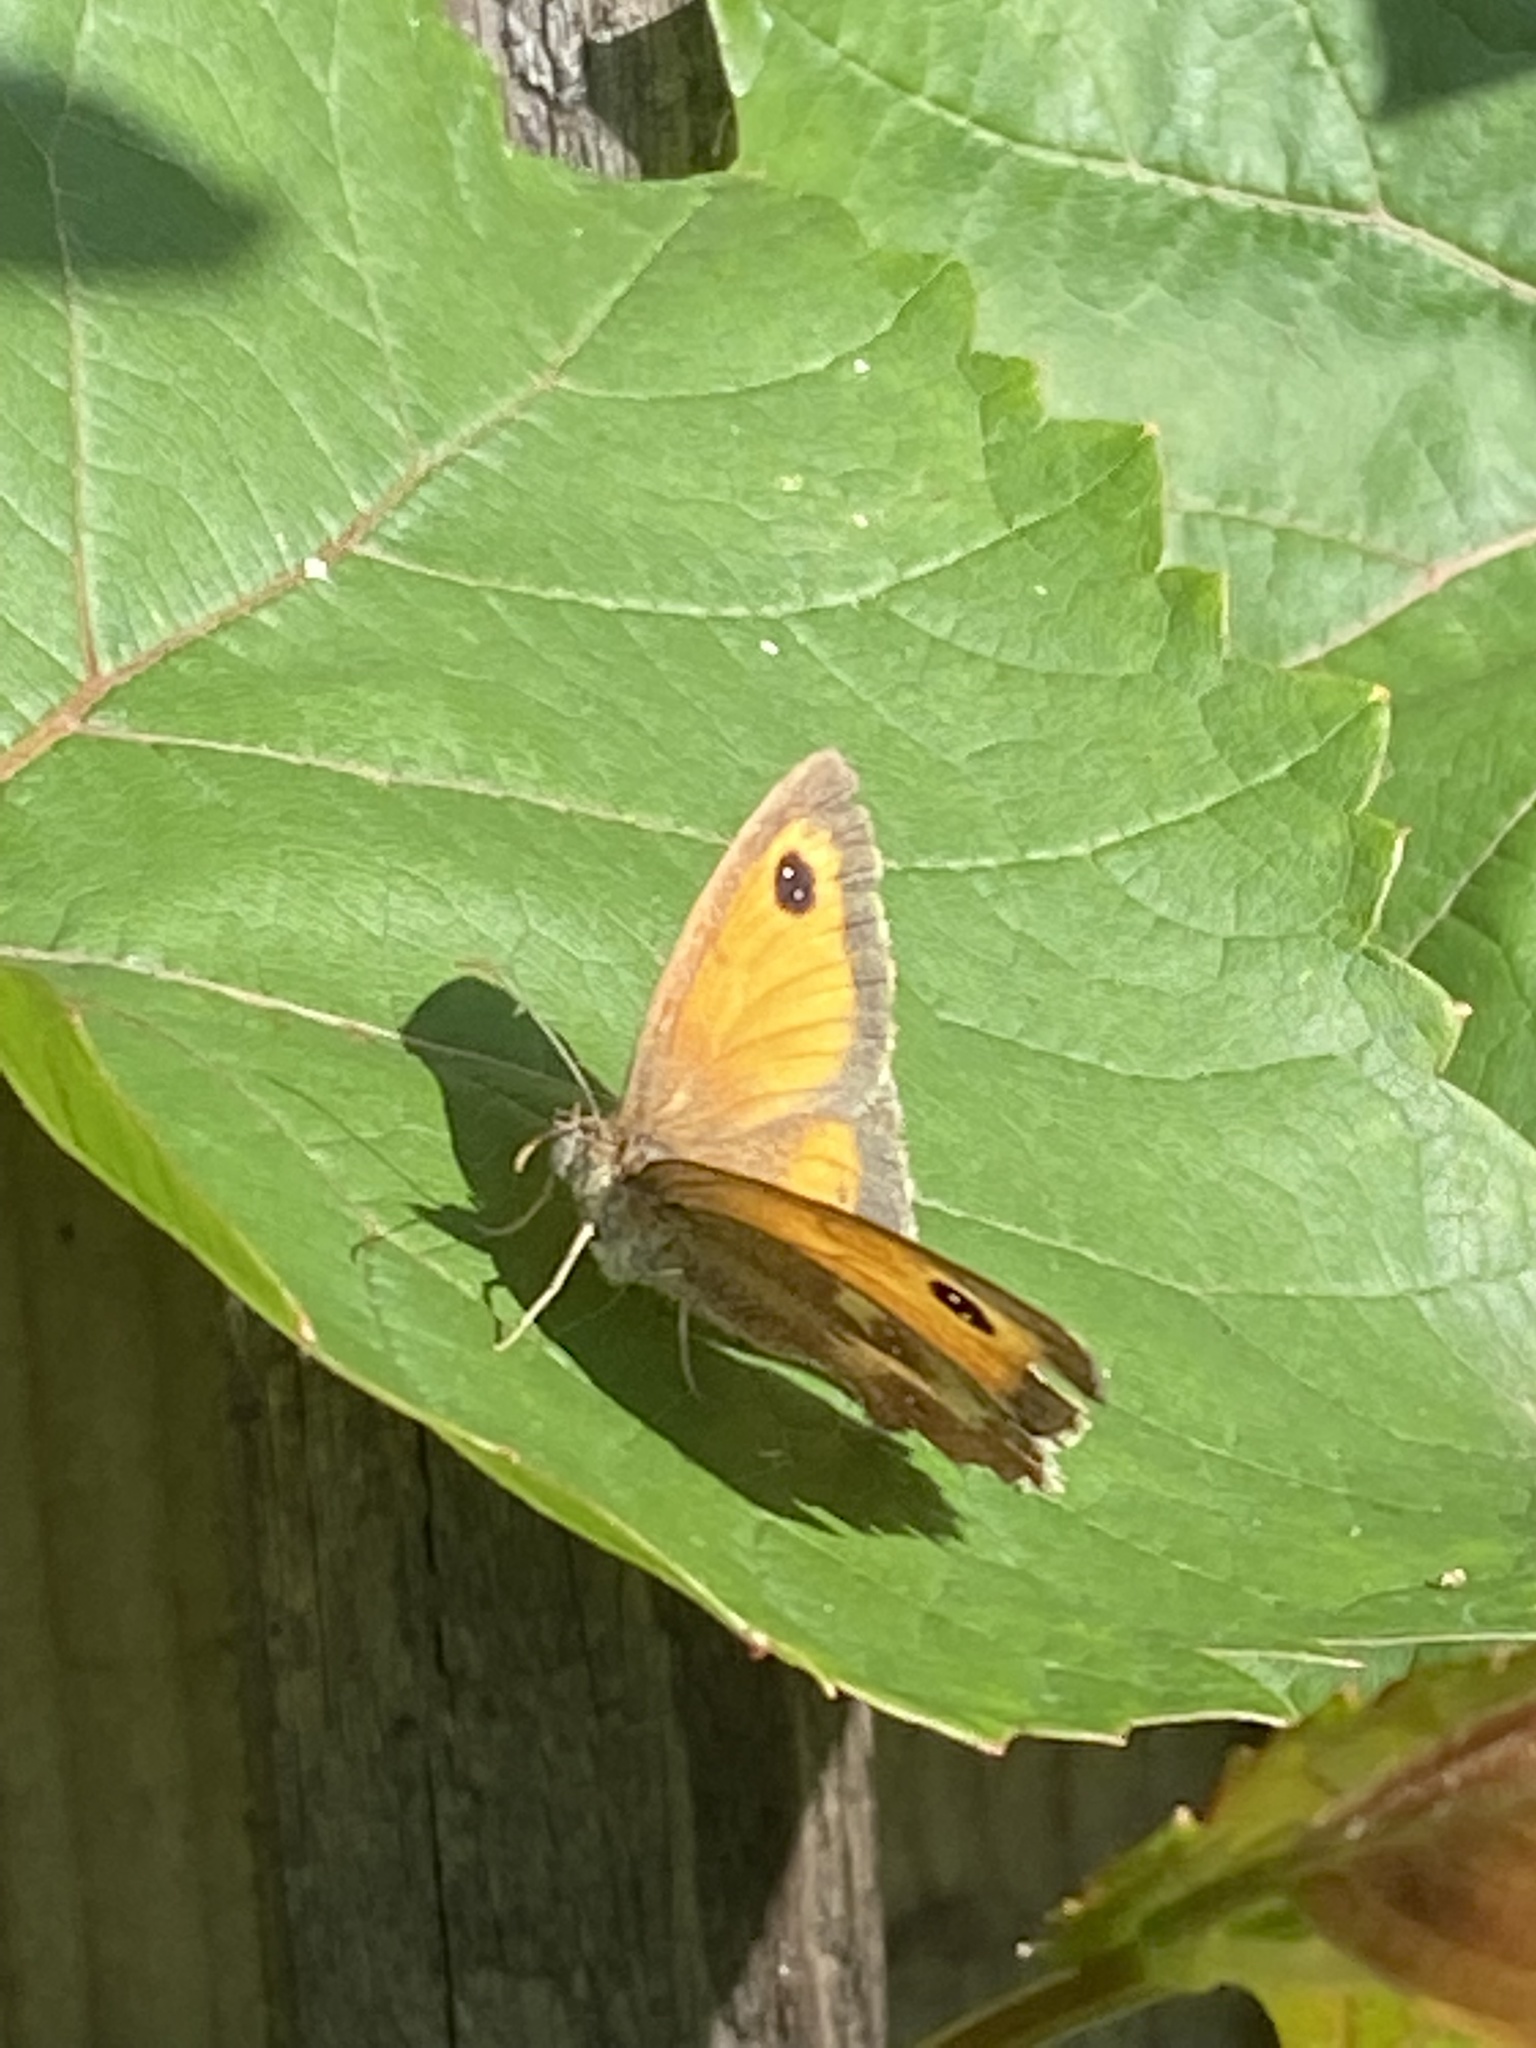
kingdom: Animalia
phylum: Arthropoda
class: Insecta
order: Lepidoptera
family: Nymphalidae
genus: Pyronia
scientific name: Pyronia tithonus
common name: Gatekeeper
